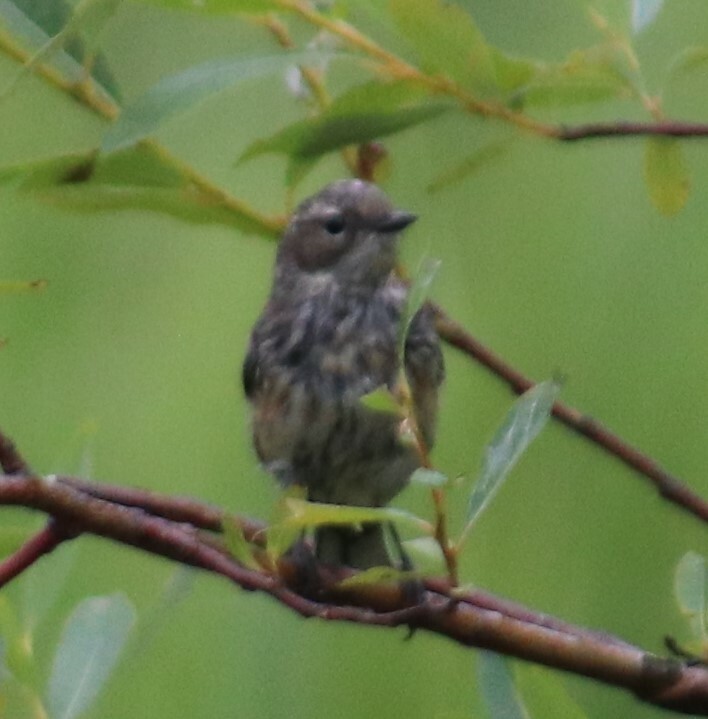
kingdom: Animalia
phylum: Chordata
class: Aves
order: Passeriformes
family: Parulidae
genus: Setophaga
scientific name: Setophaga coronata
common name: Myrtle warbler
